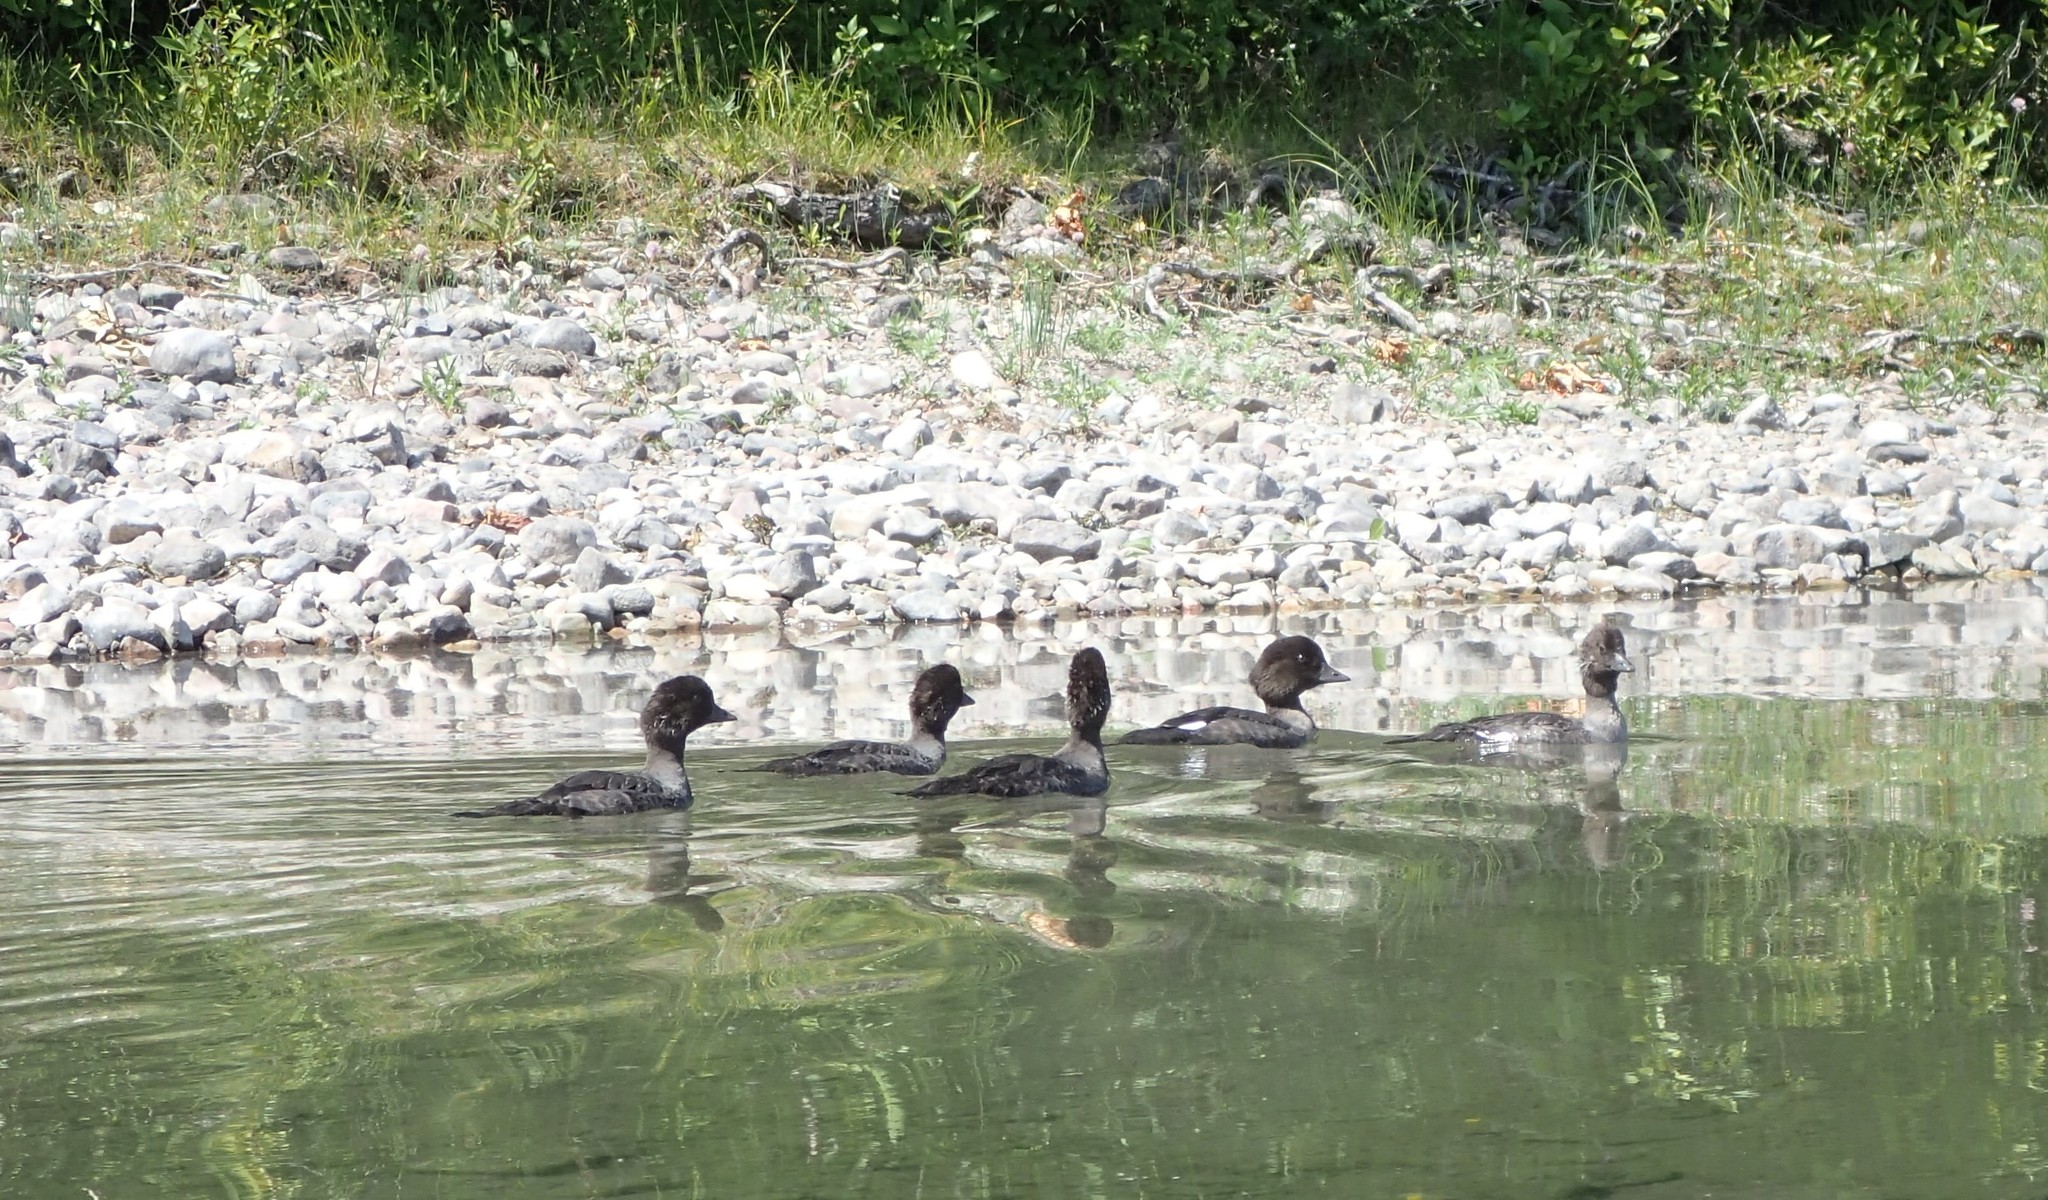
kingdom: Animalia
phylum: Chordata
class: Aves
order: Anseriformes
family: Anatidae
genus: Bucephala
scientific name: Bucephala islandica
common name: Barrow's goldeneye
